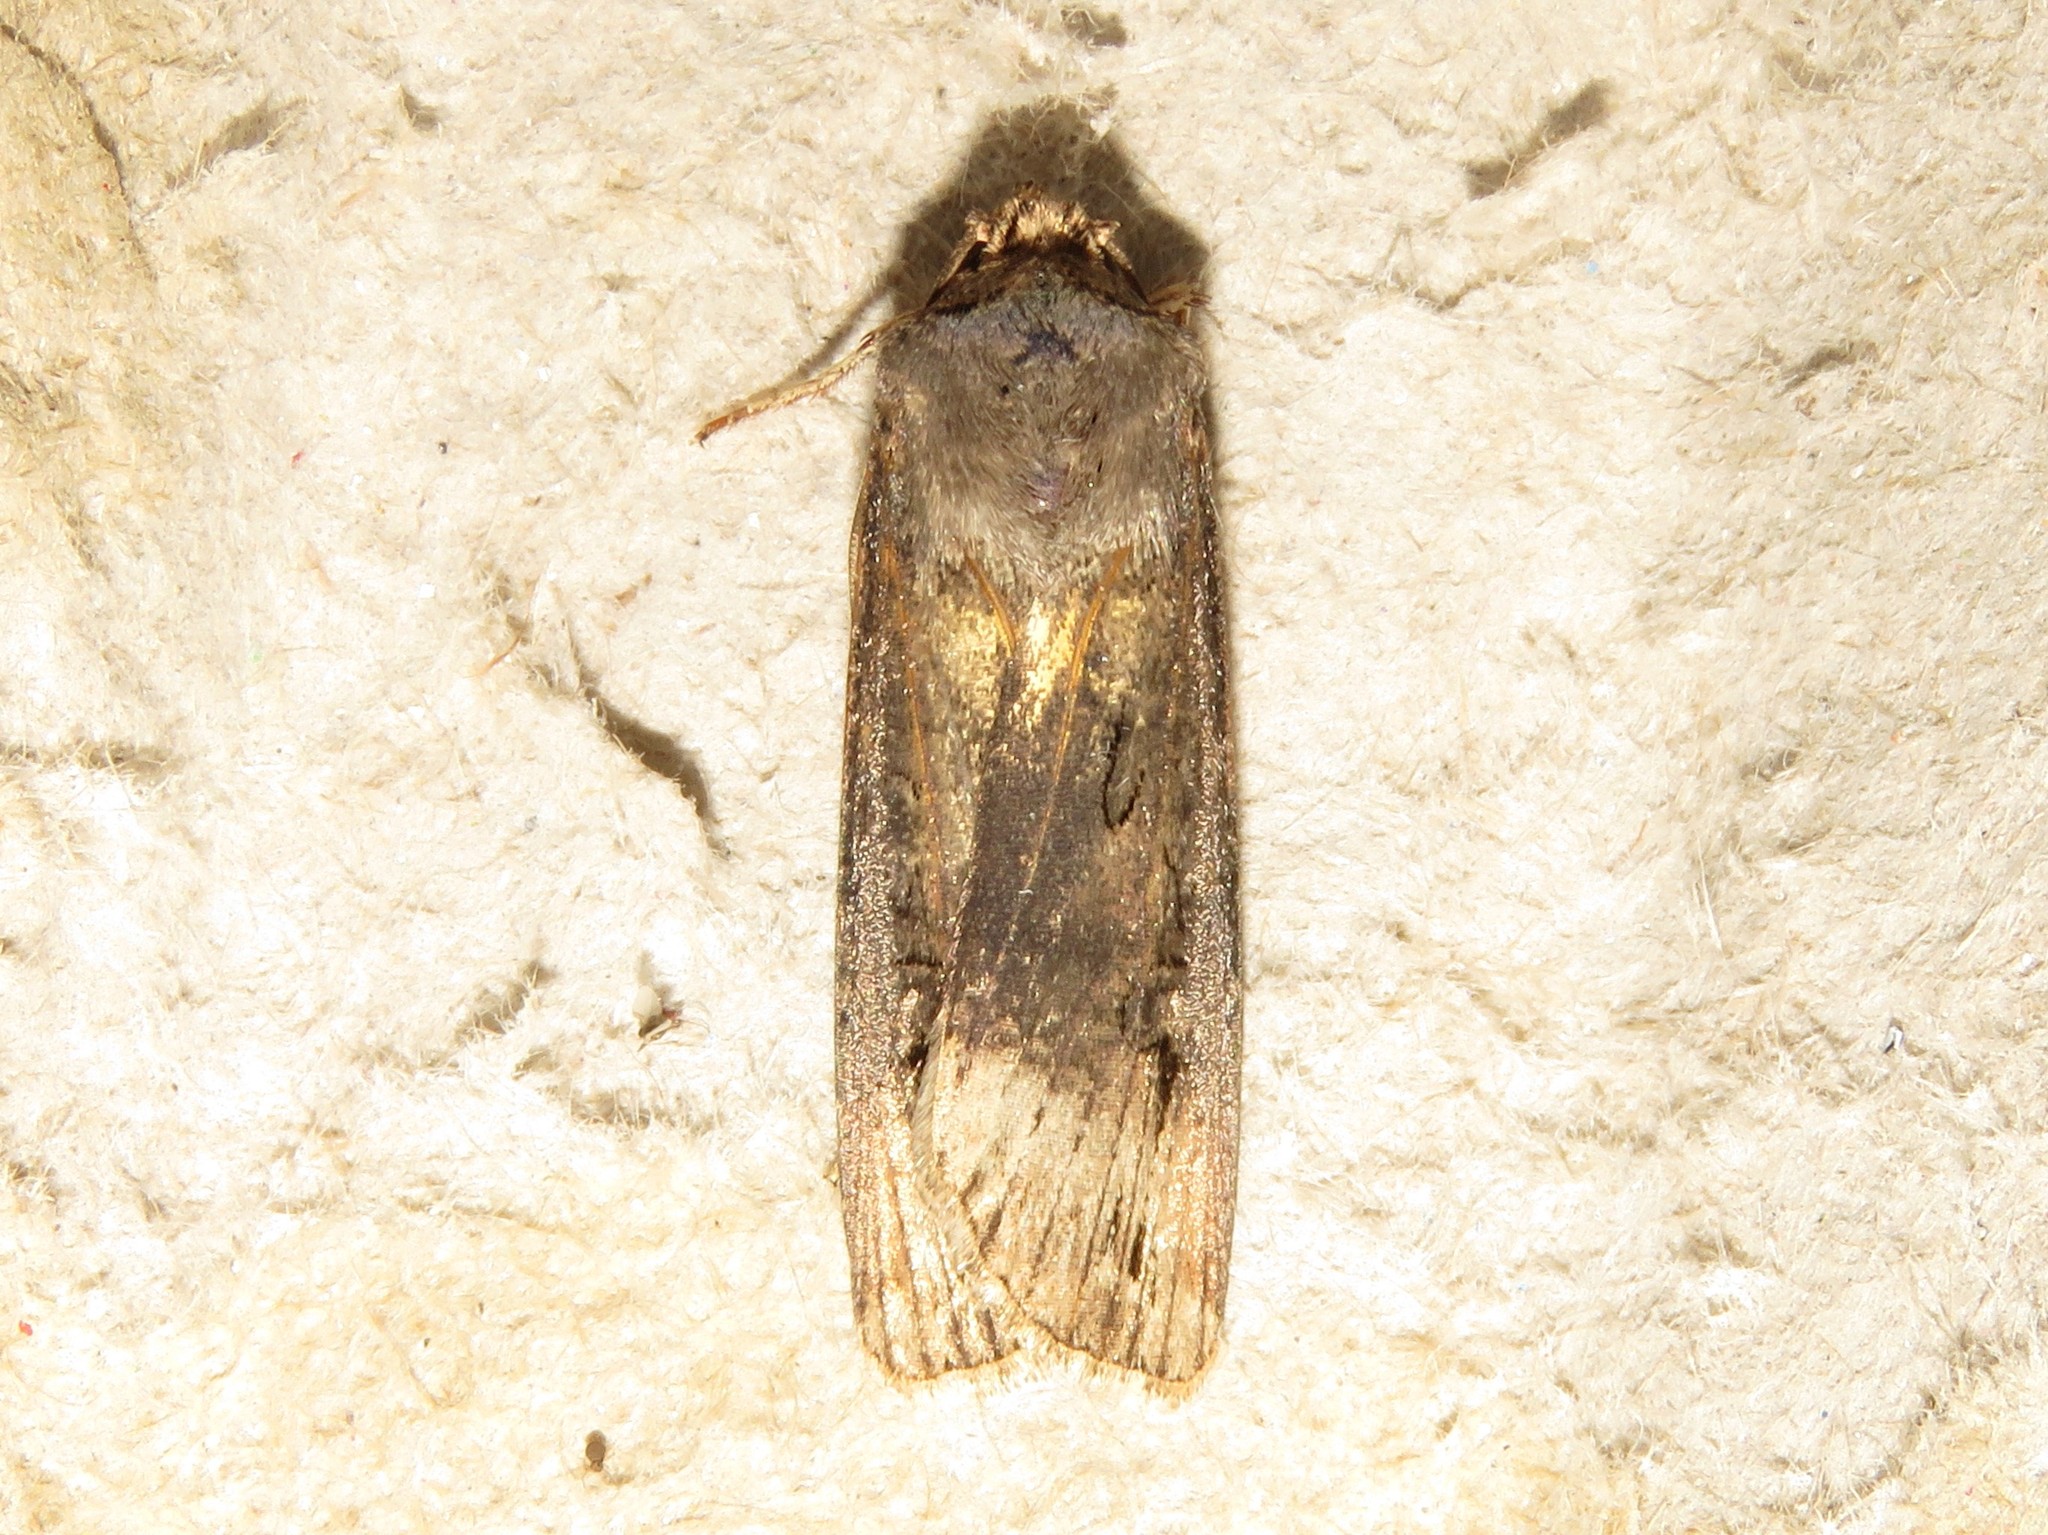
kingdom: Animalia
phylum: Arthropoda
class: Insecta
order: Lepidoptera
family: Noctuidae
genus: Agrotis
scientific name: Agrotis ipsilon
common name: Dark sword-grass
